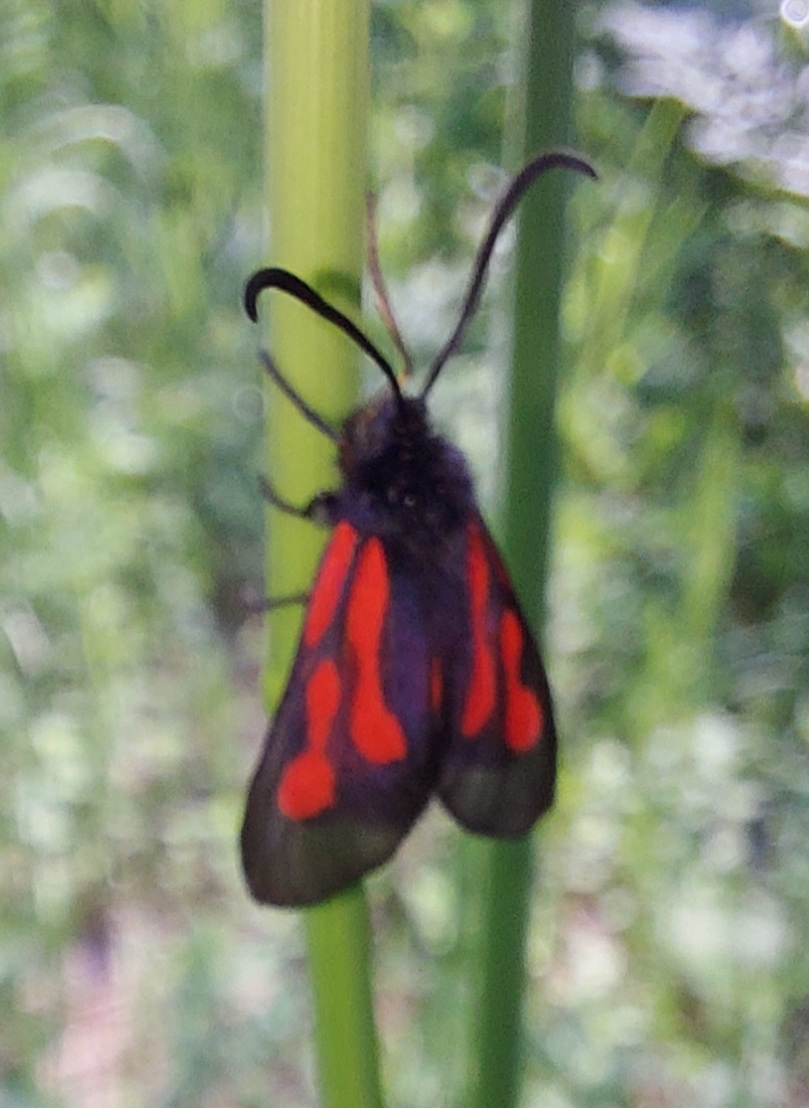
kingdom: Animalia
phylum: Arthropoda
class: Insecta
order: Lepidoptera
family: Zygaenidae
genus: Zygaena
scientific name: Zygaena osterodensis
